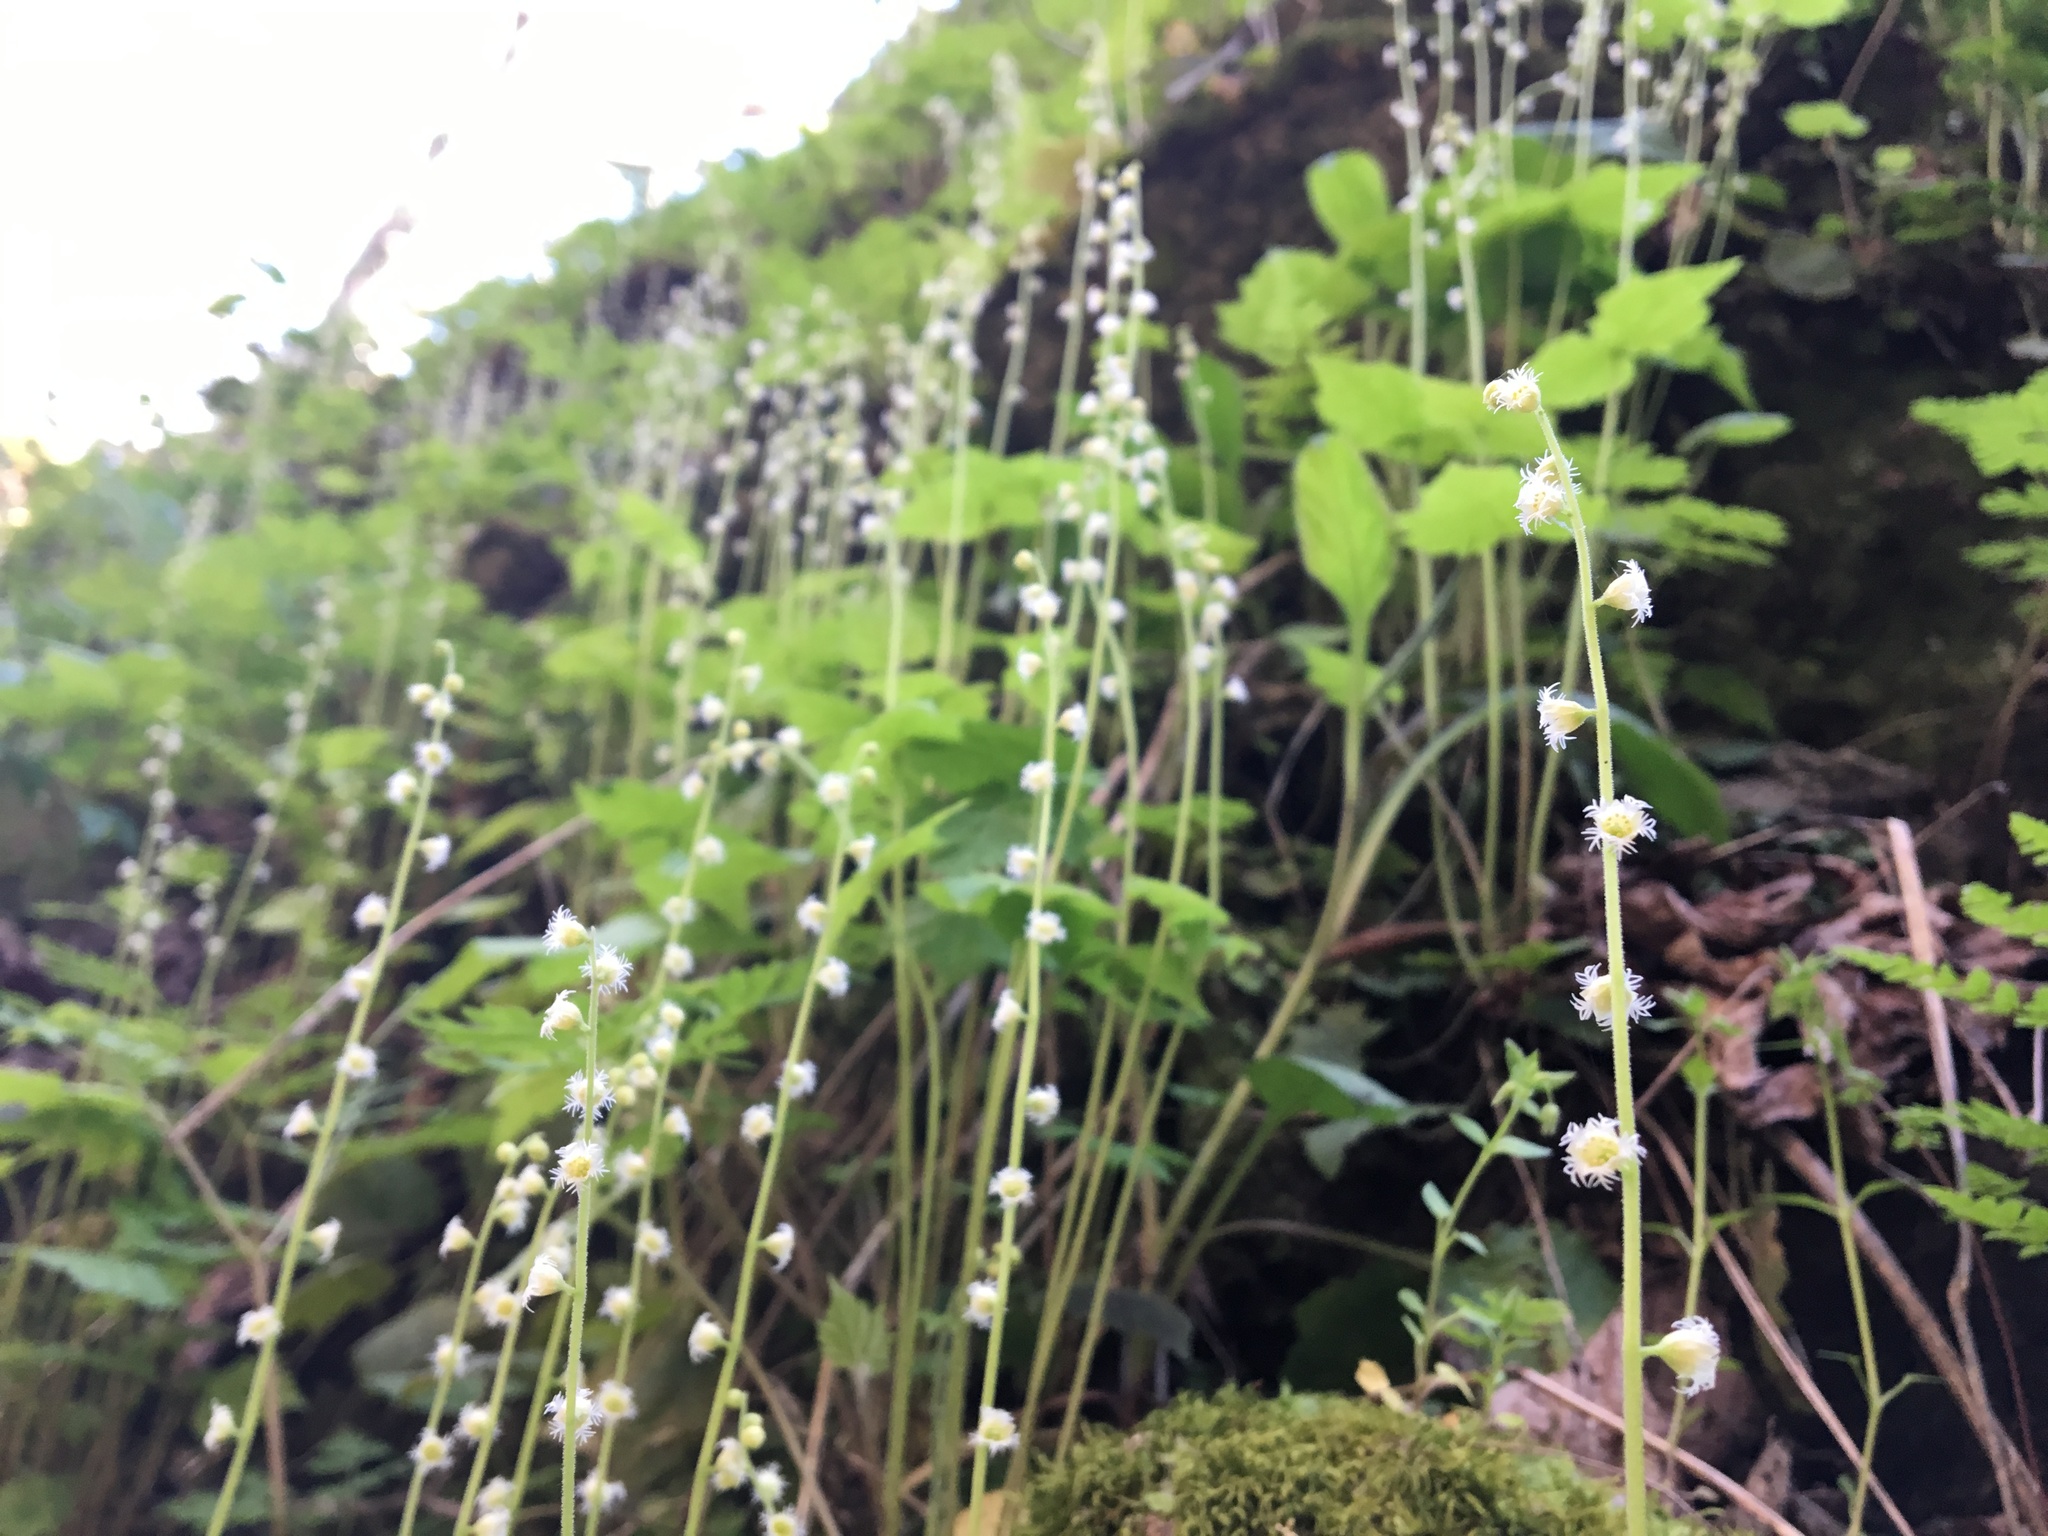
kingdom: Plantae
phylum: Tracheophyta
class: Magnoliopsida
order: Saxifragales
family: Saxifragaceae
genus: Mitella
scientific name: Mitella diphylla
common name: Coolwort
